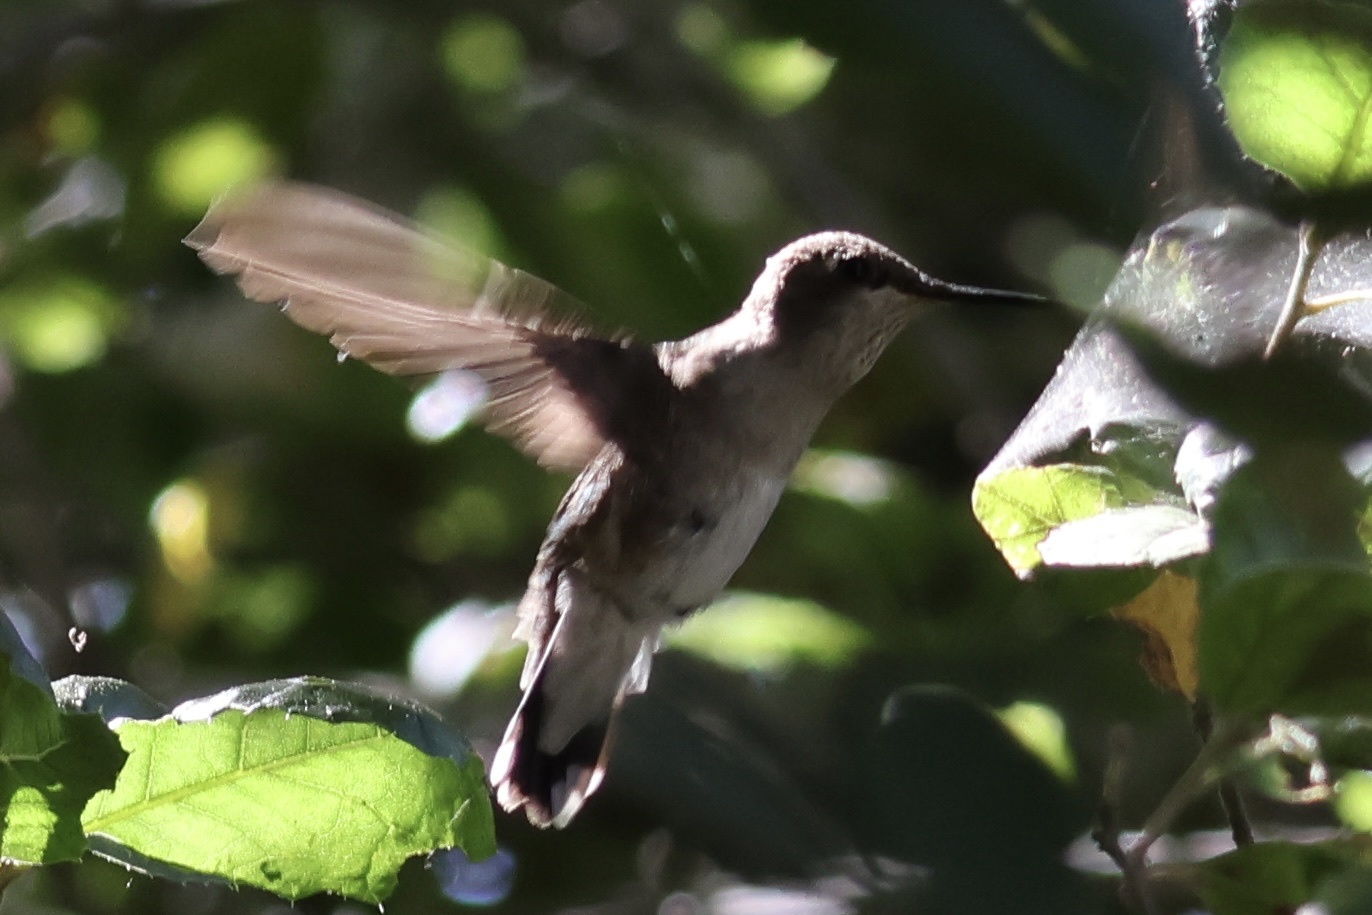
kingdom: Animalia
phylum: Chordata
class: Aves
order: Apodiformes
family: Trochilidae
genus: Archilochus
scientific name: Archilochus alexandri
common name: Black-chinned hummingbird
